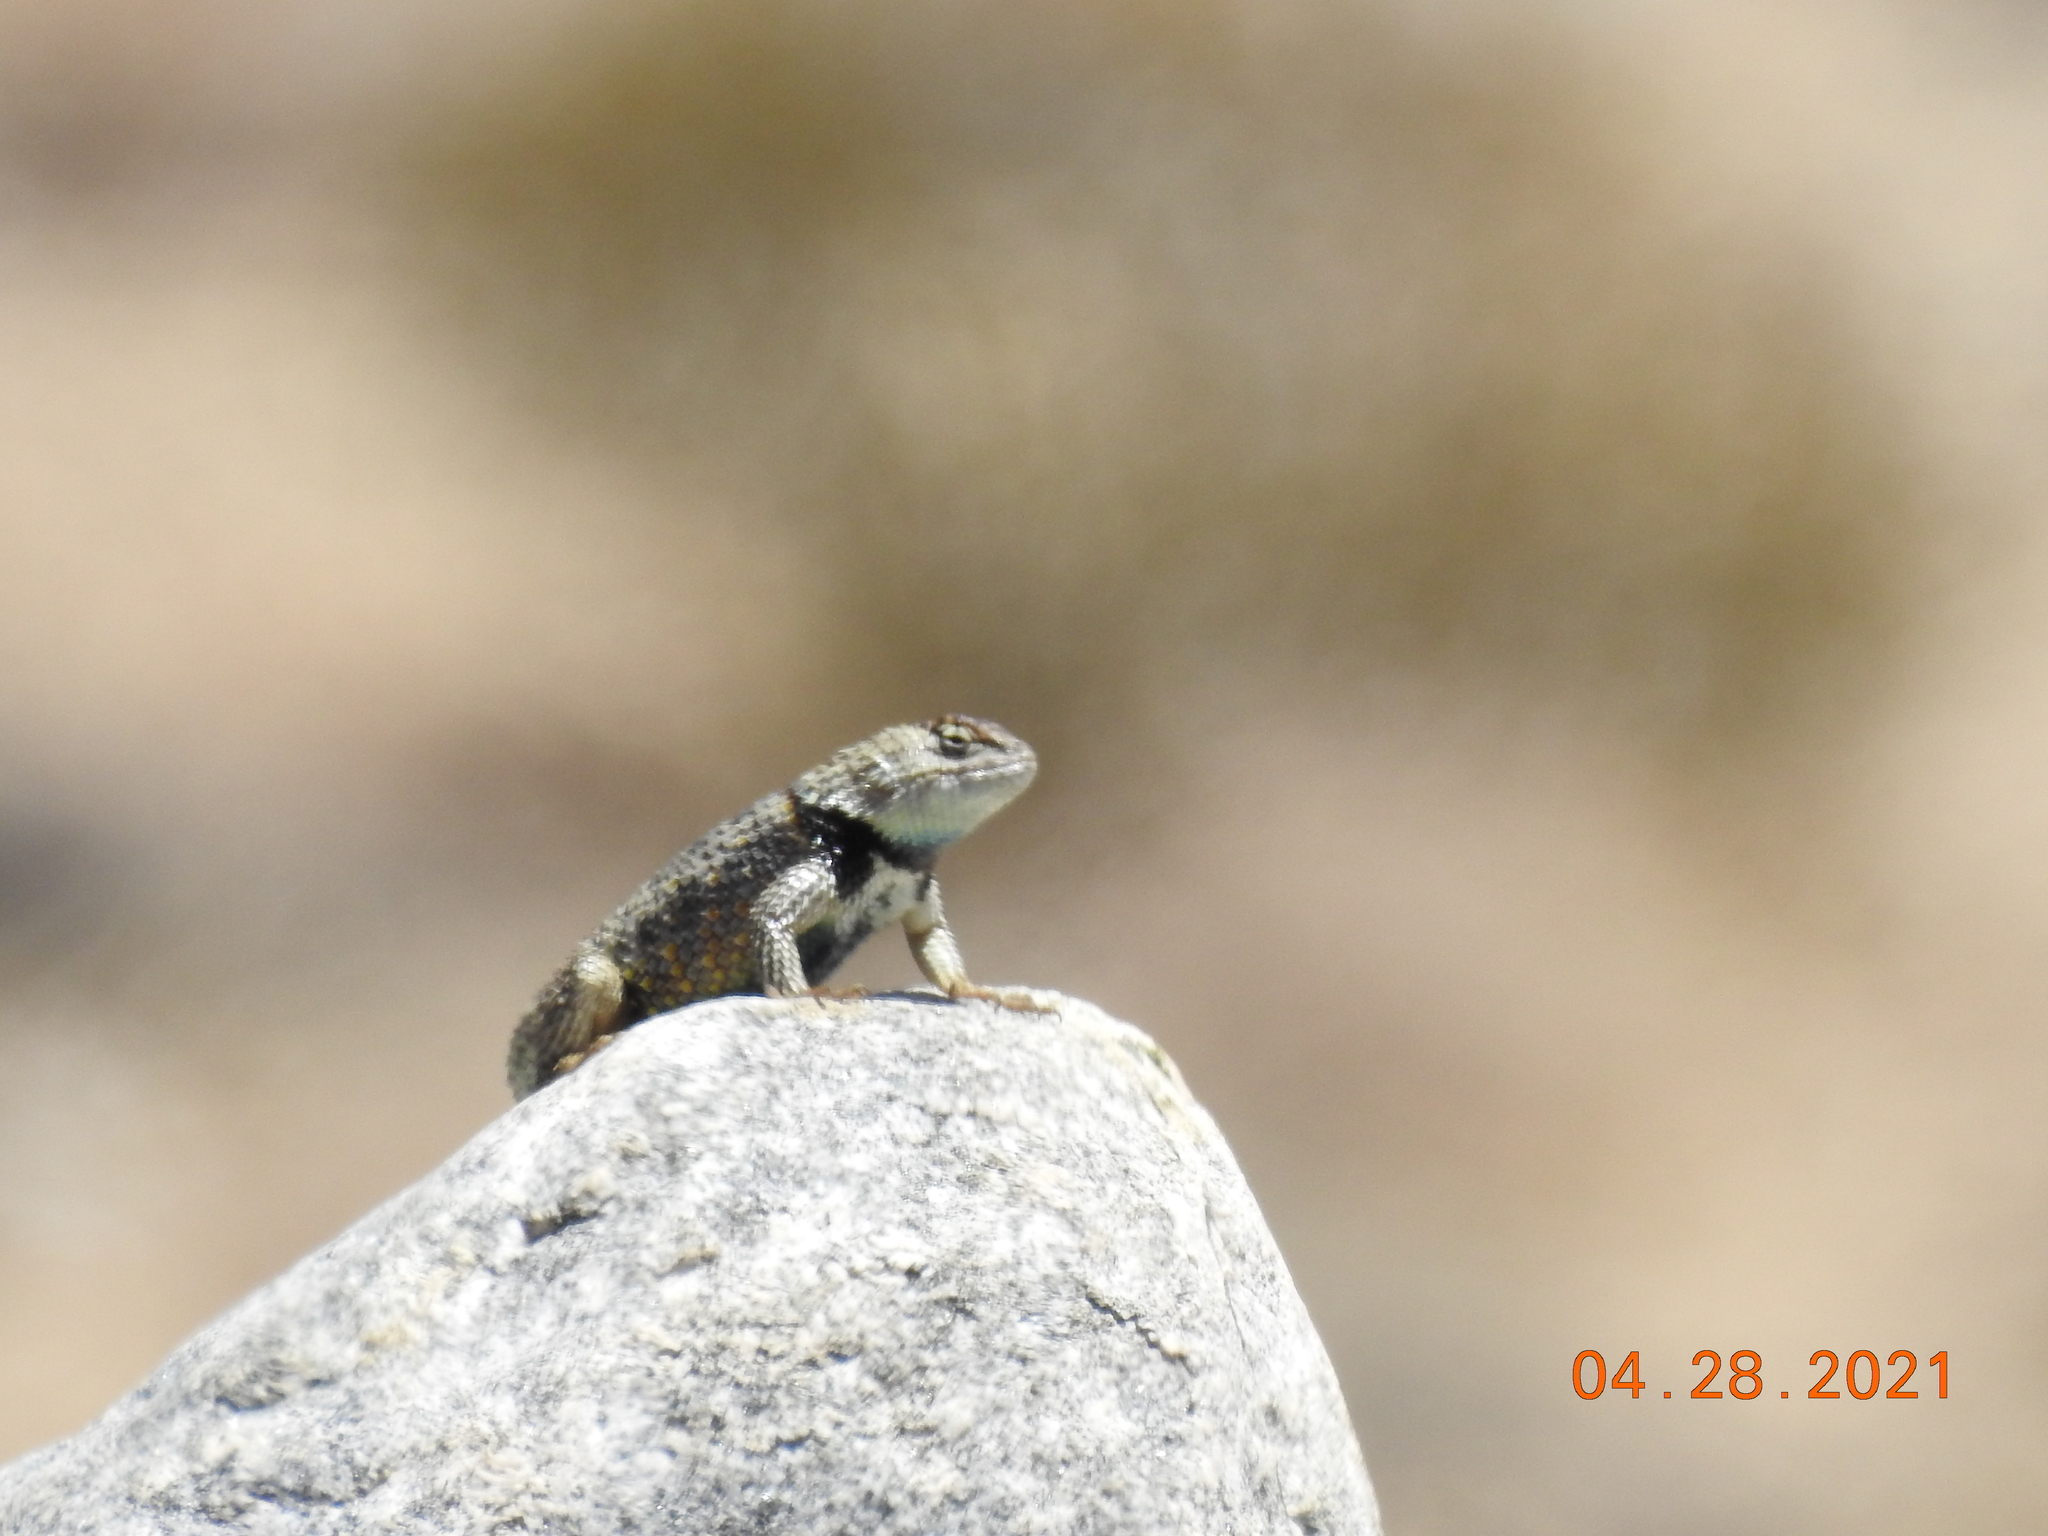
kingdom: Animalia
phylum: Chordata
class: Squamata
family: Phrynosomatidae
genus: Sceloporus
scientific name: Sceloporus magister
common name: Desert spiny lizard
